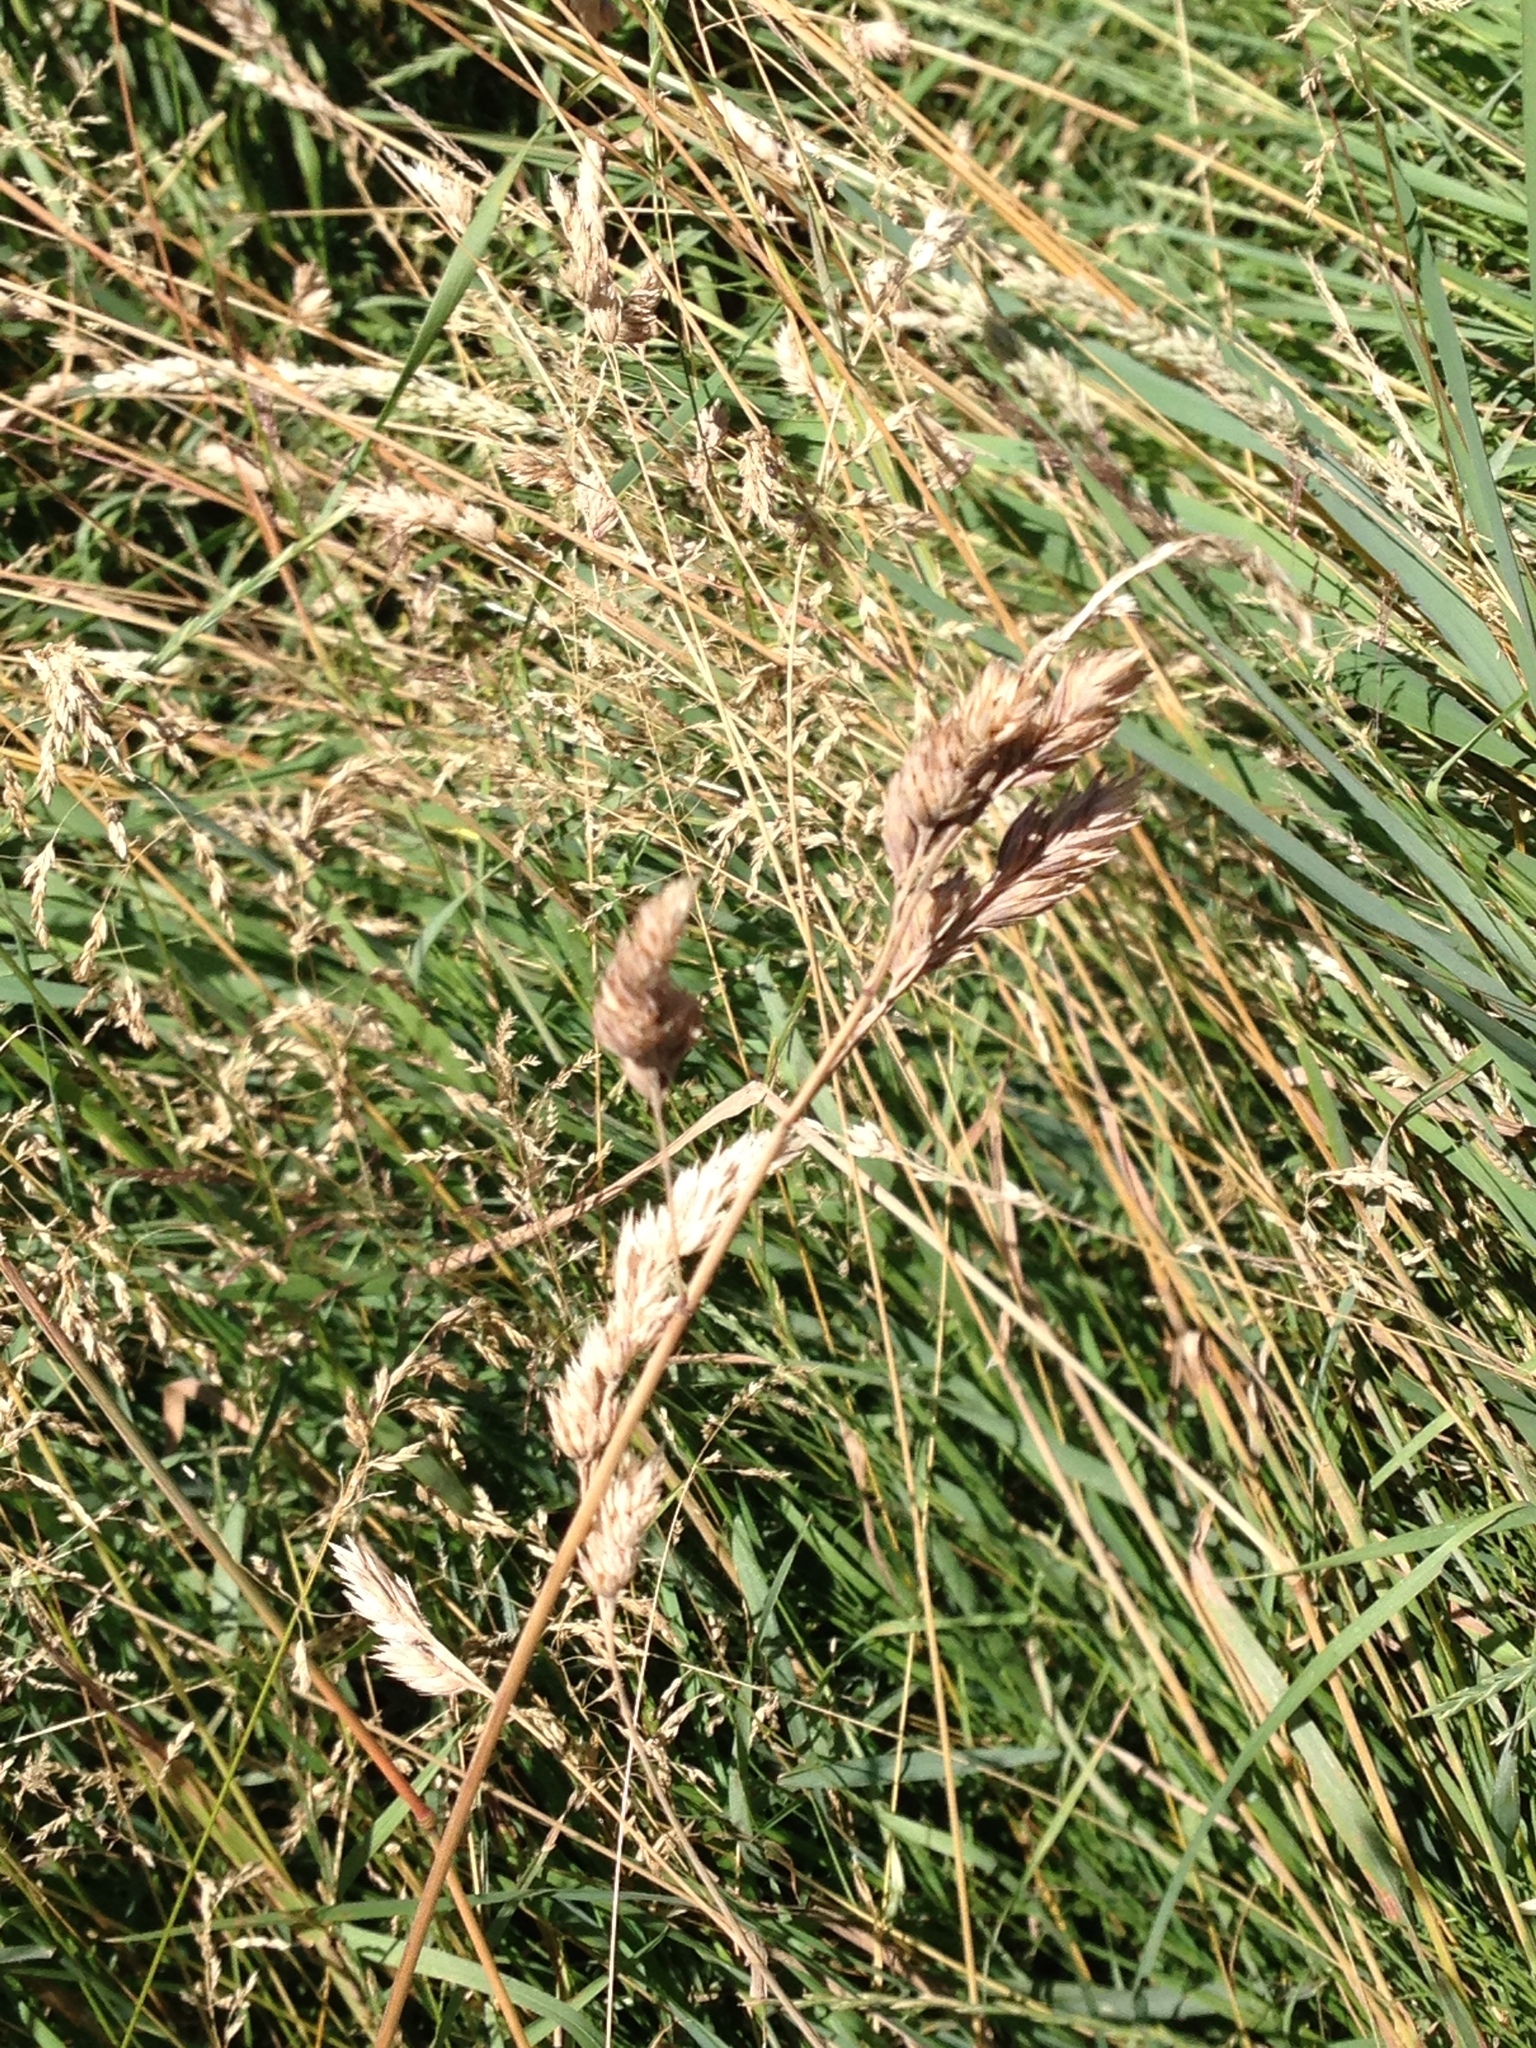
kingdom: Plantae
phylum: Tracheophyta
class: Liliopsida
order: Poales
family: Poaceae
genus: Dactylis
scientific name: Dactylis glomerata
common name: Orchardgrass
